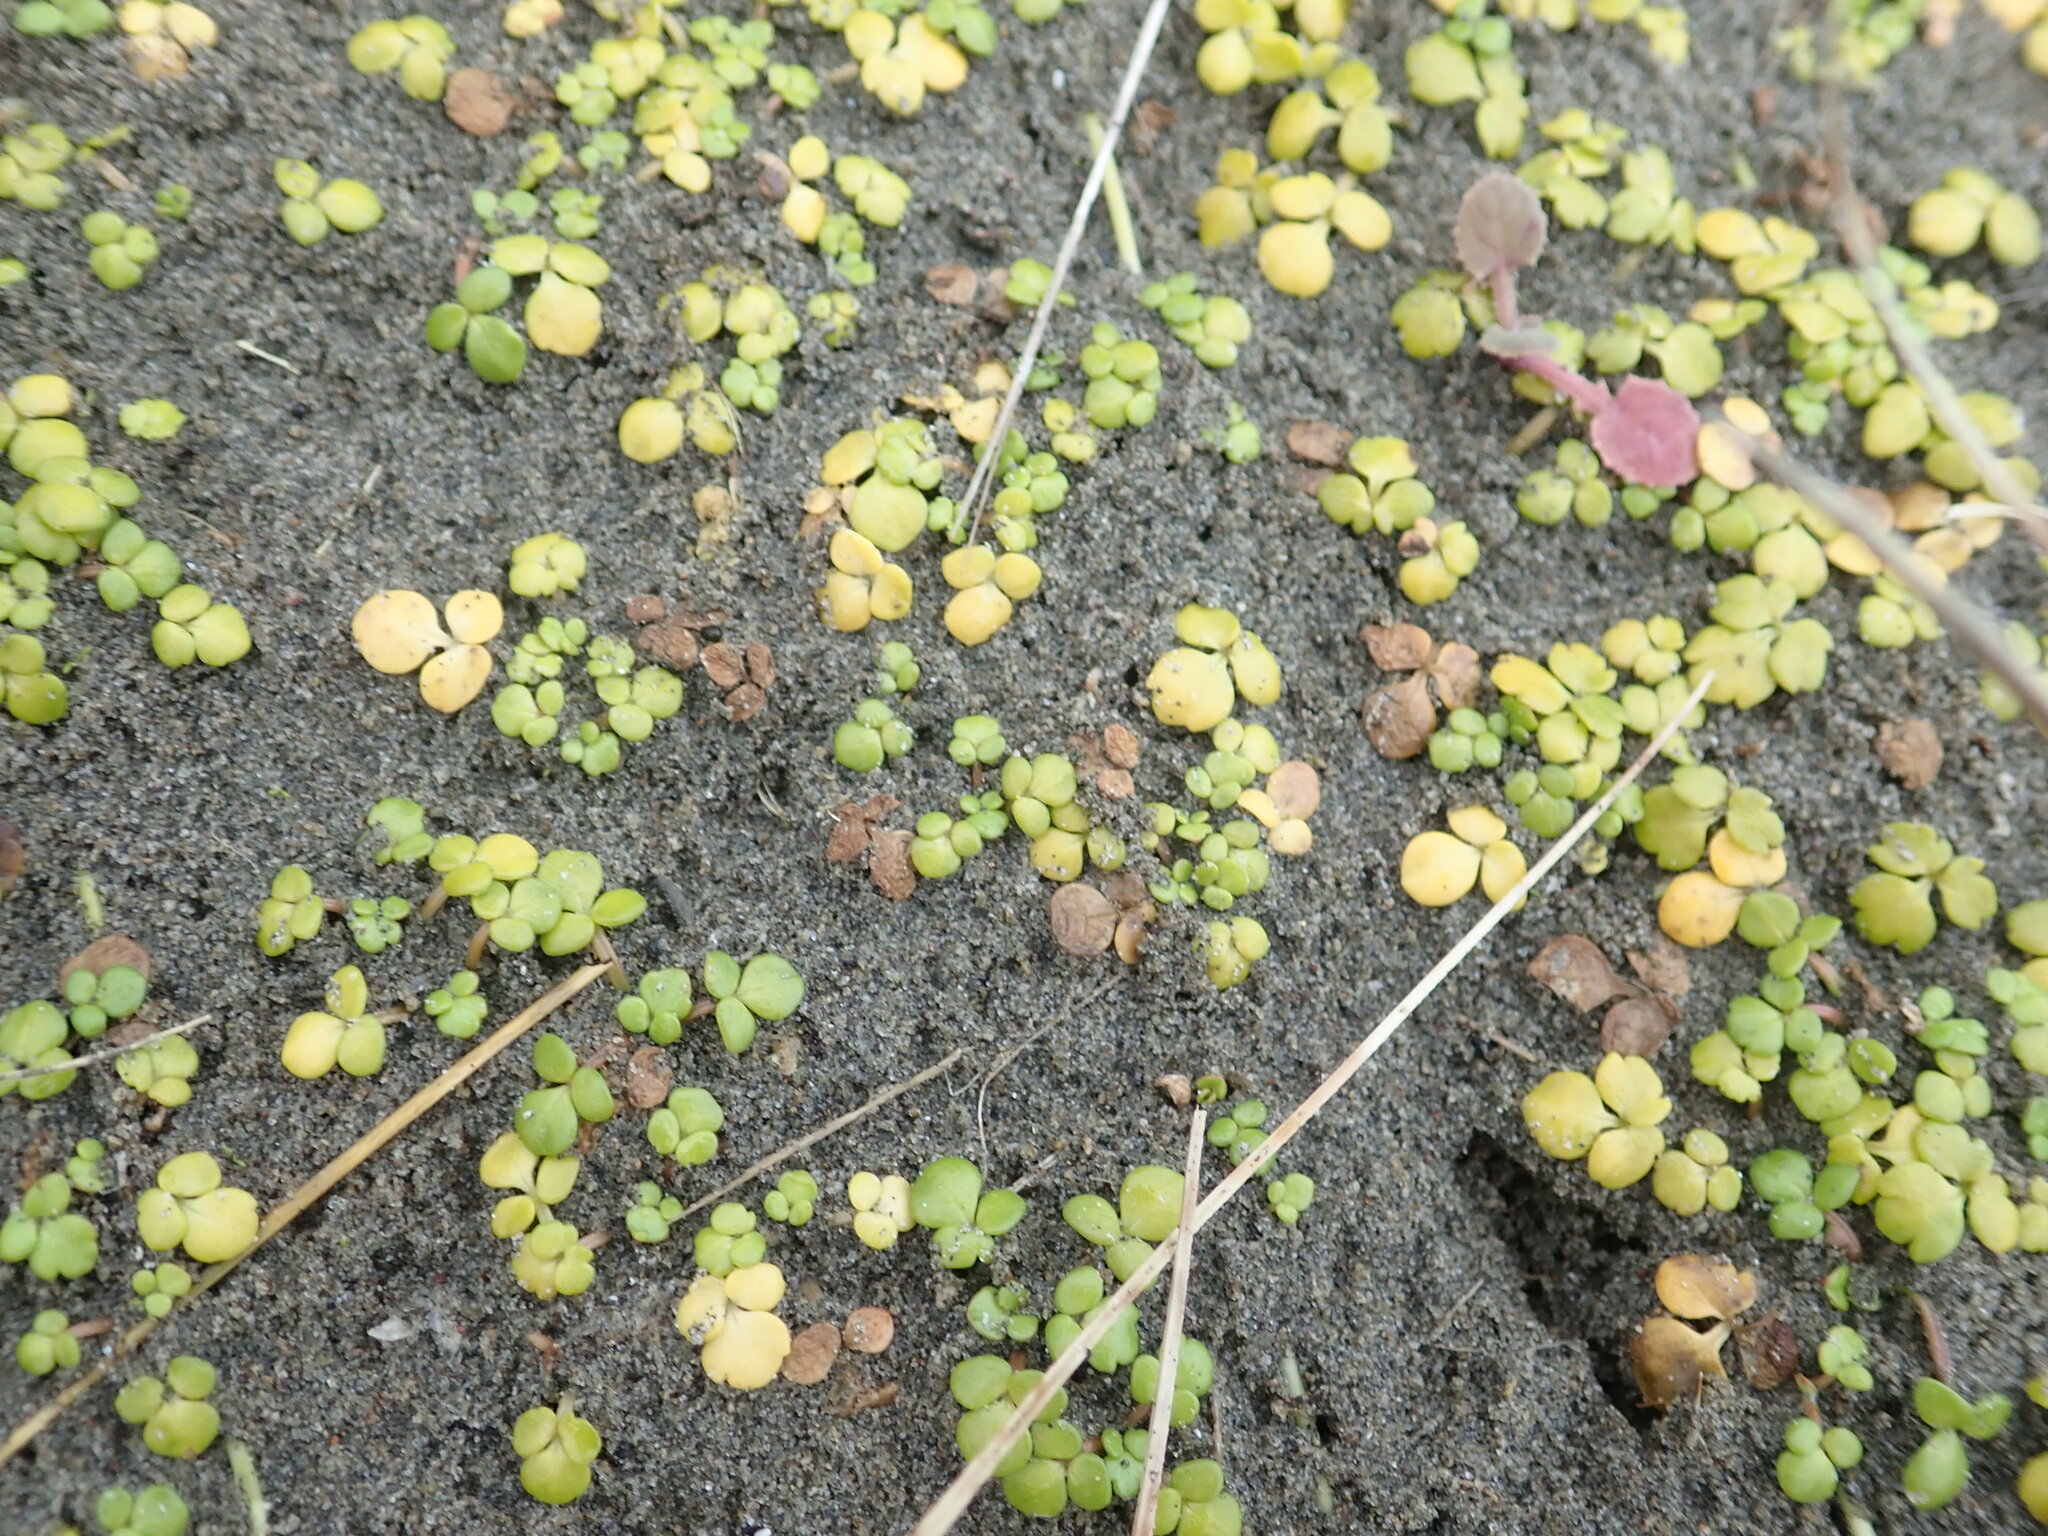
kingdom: Plantae
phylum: Tracheophyta
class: Magnoliopsida
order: Ranunculales
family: Ranunculaceae
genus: Ranunculus
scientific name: Ranunculus acaulis
